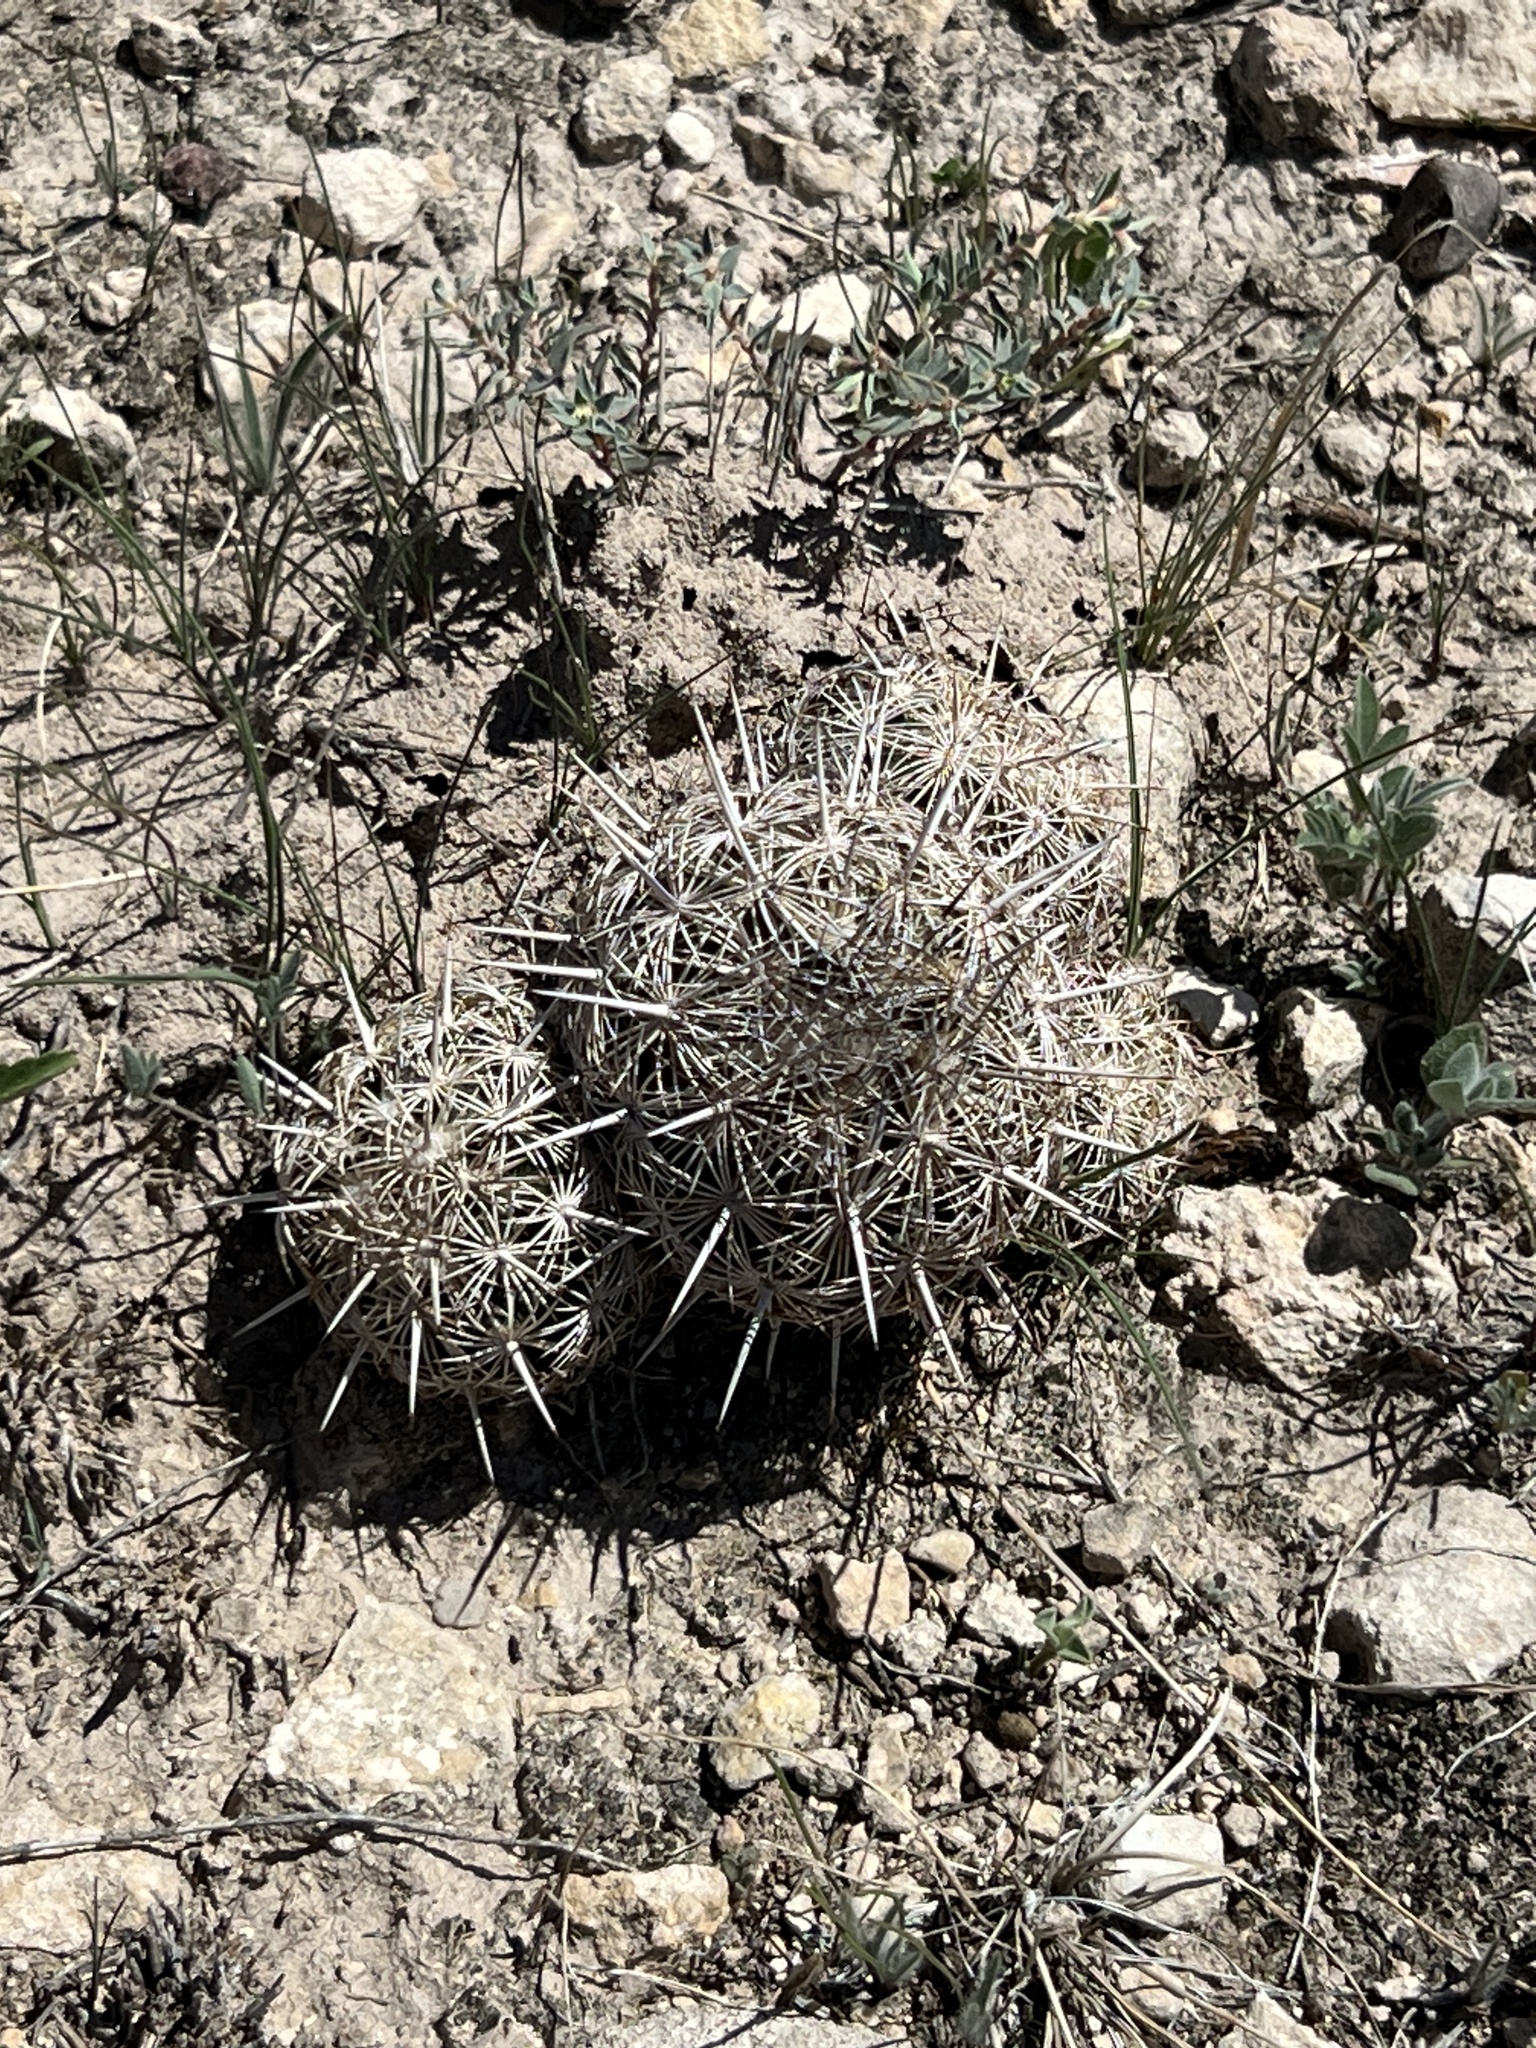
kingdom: Plantae
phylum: Tracheophyta
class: Magnoliopsida
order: Caryophyllales
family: Cactaceae
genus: Coryphantha
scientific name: Coryphantha echinus
